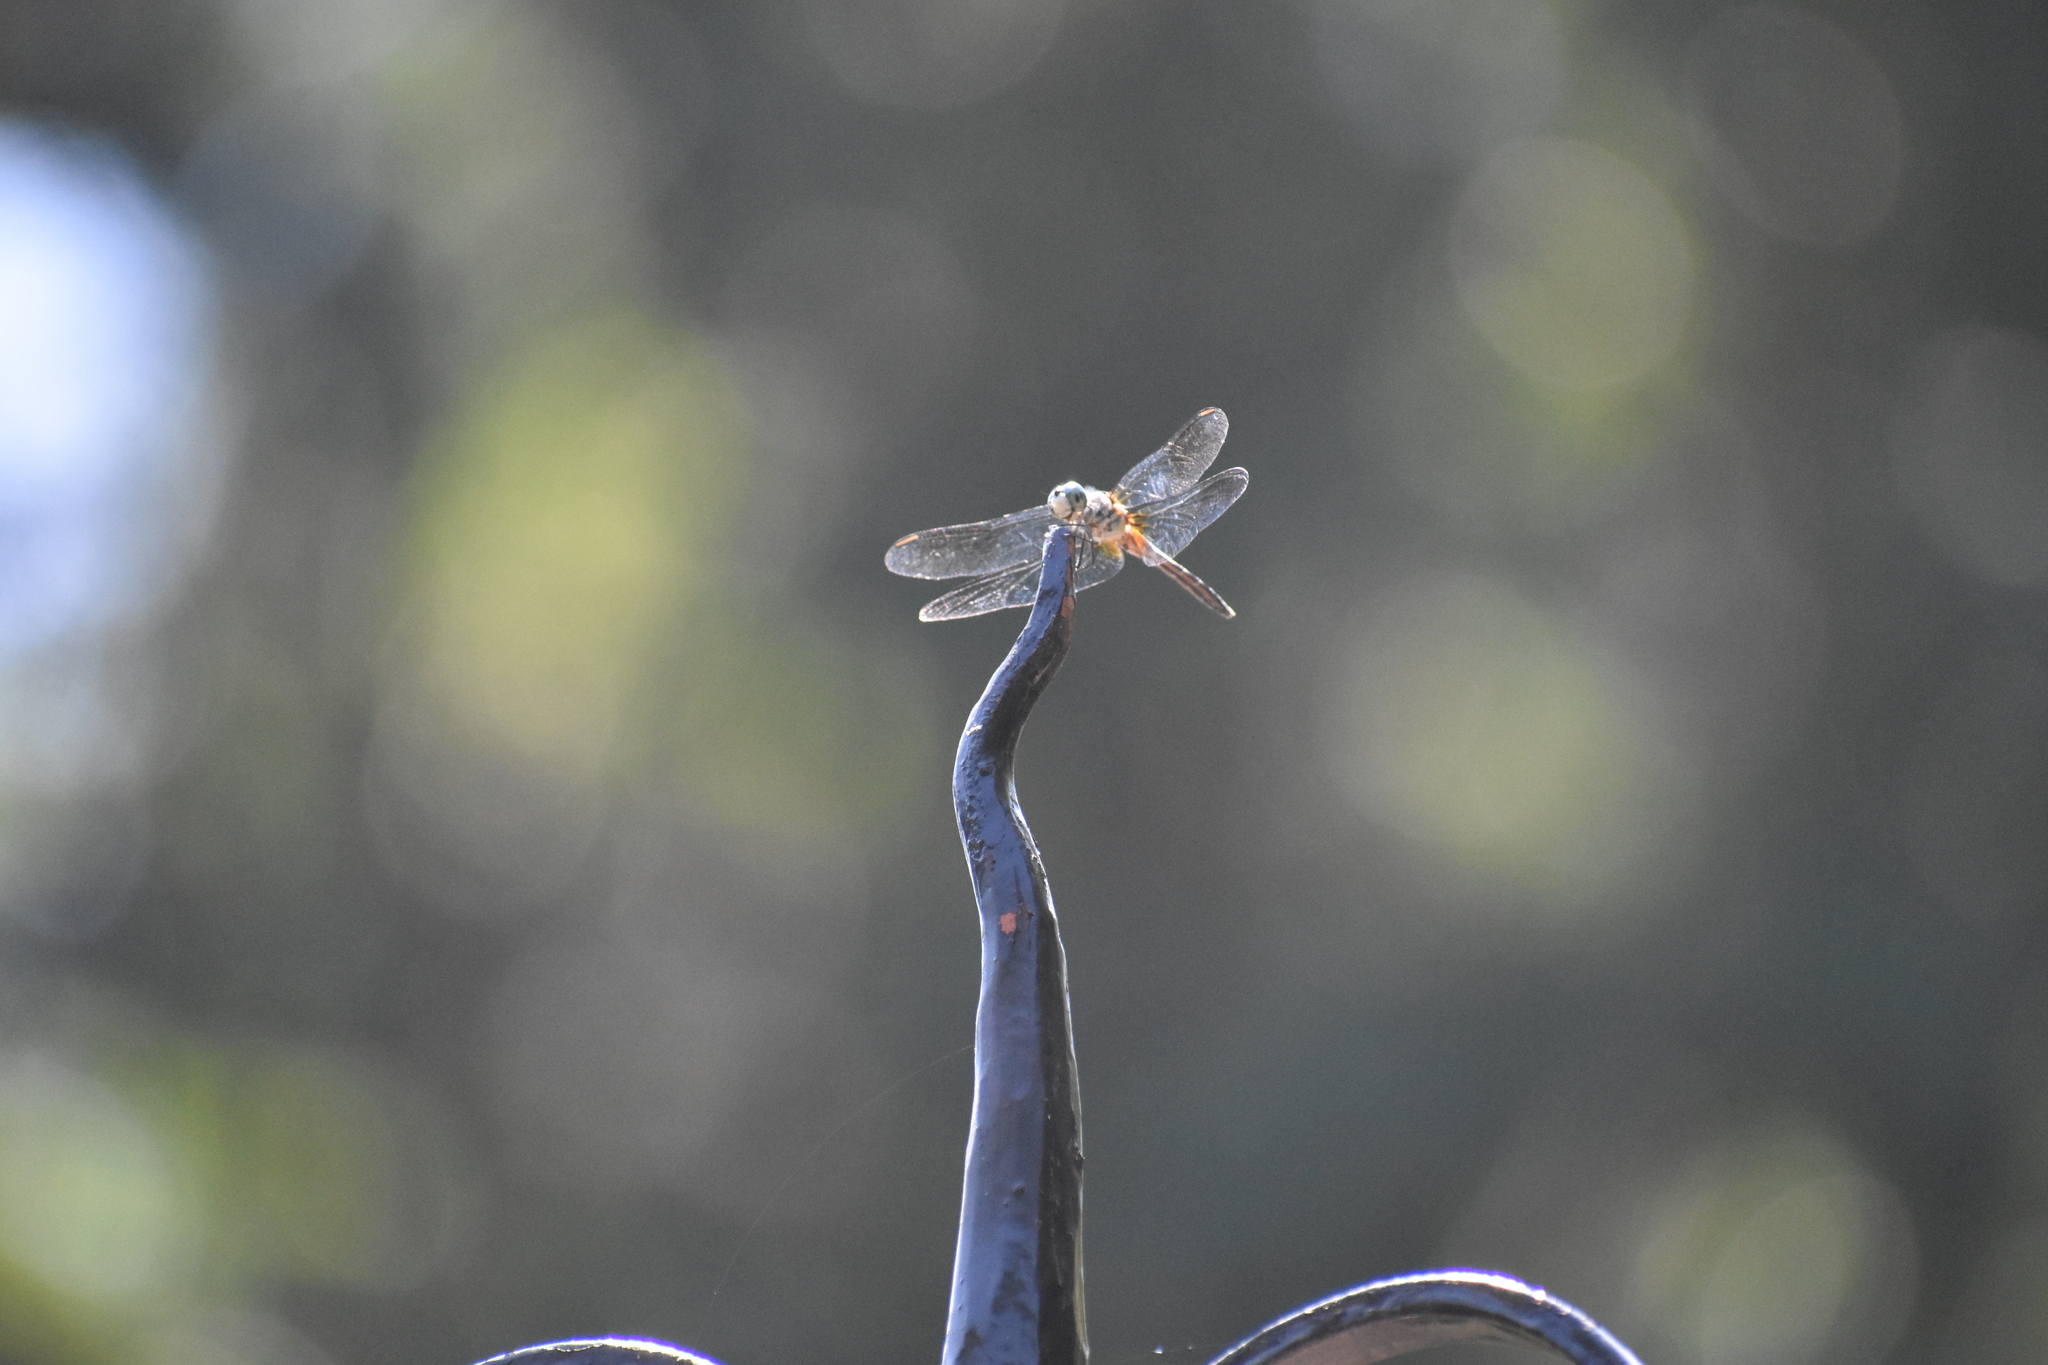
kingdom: Animalia
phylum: Arthropoda
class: Insecta
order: Odonata
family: Libellulidae
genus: Pachydiplax
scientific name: Pachydiplax longipennis
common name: Blue dasher
